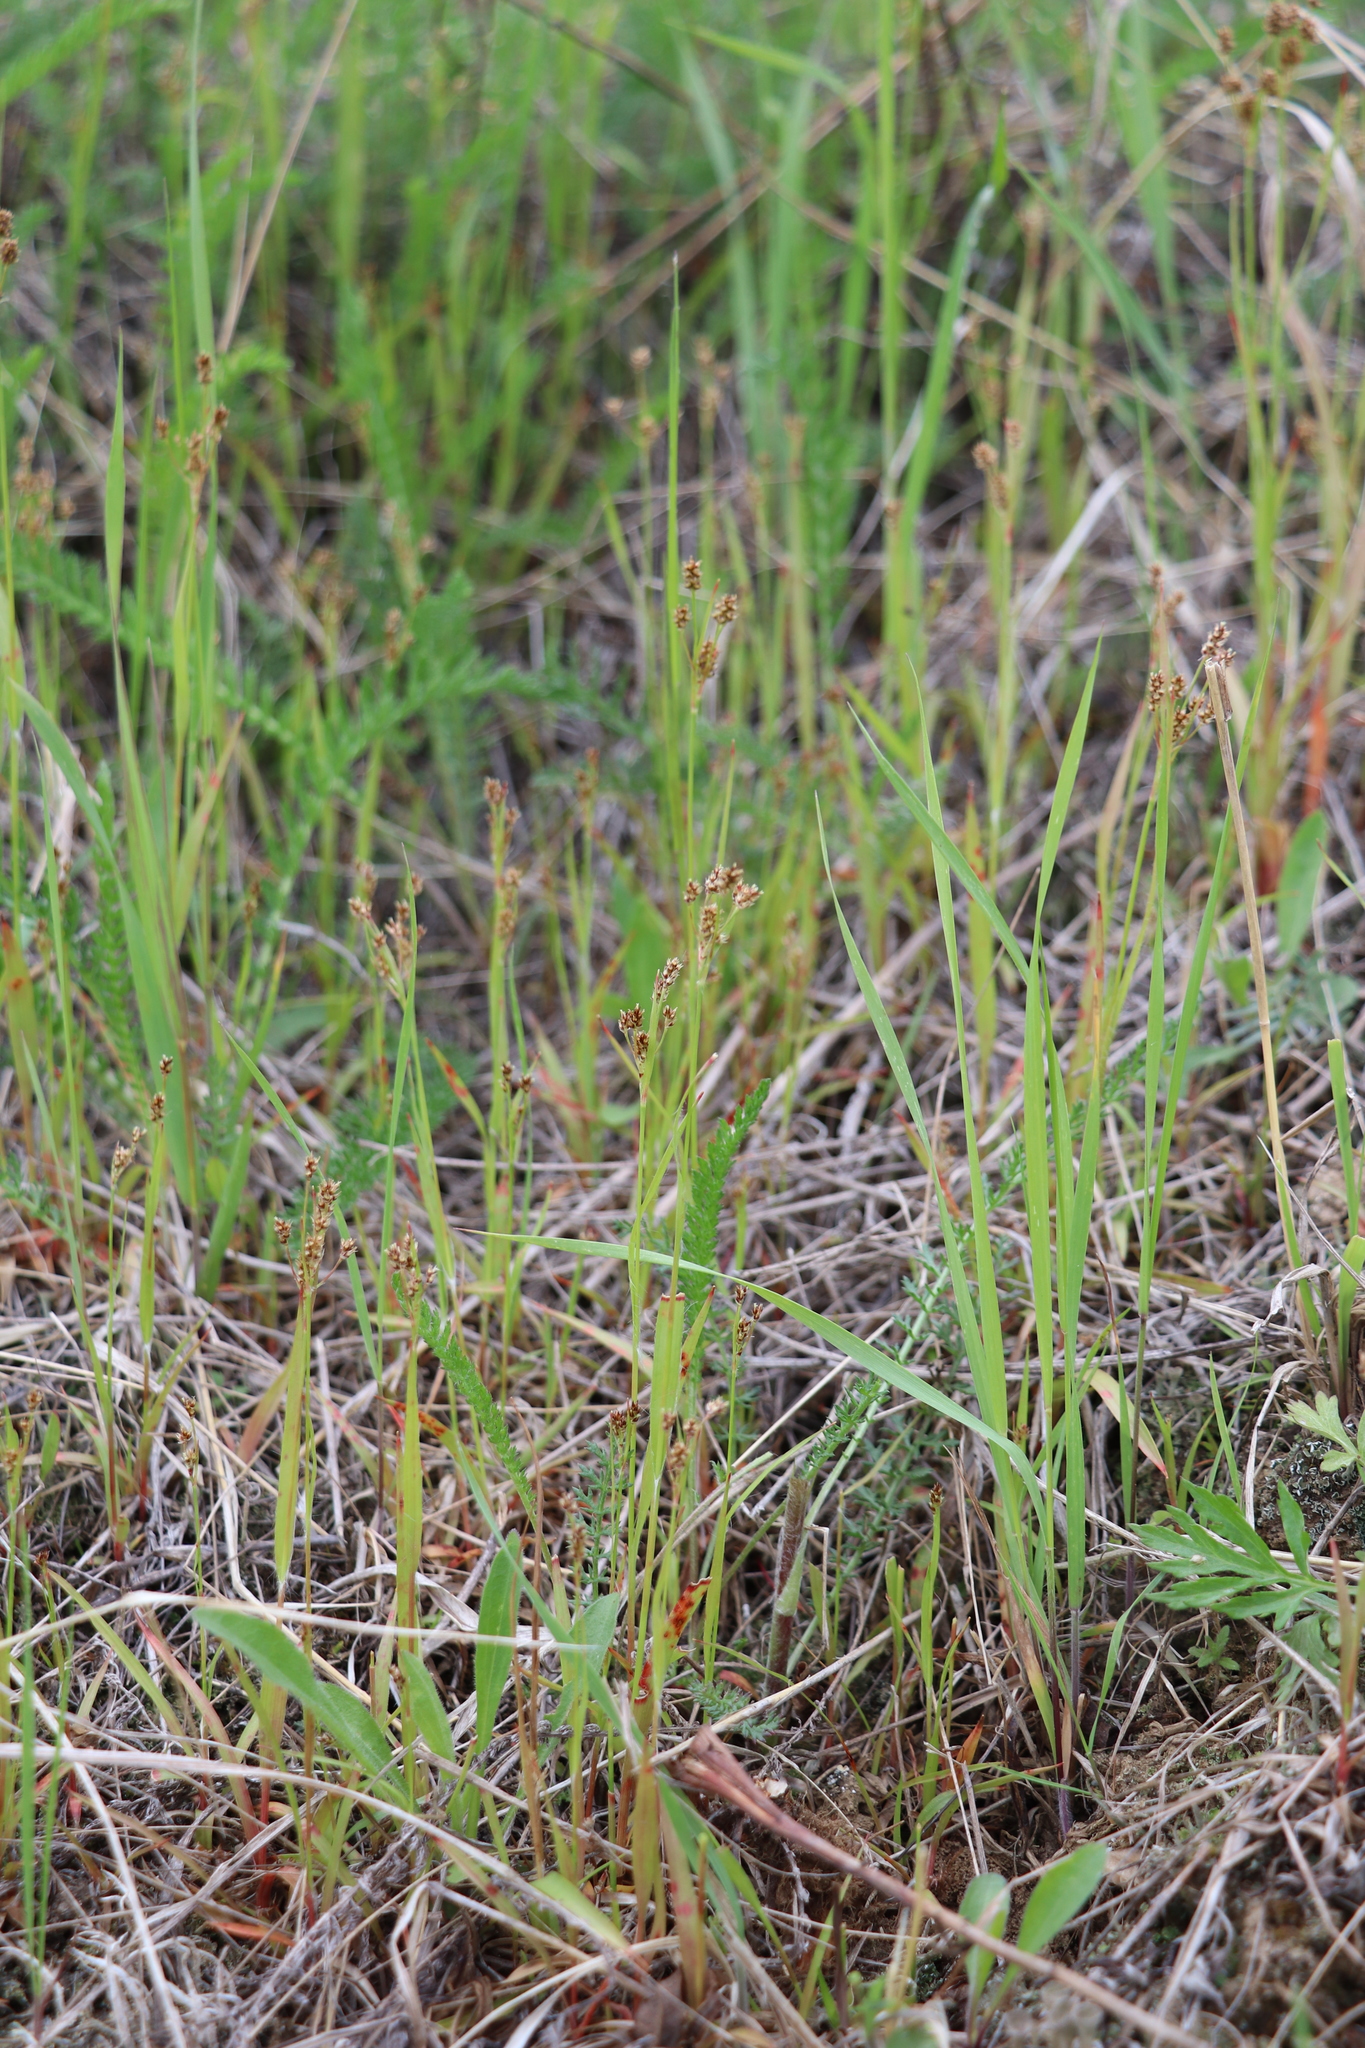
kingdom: Plantae
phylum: Tracheophyta
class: Liliopsida
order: Poales
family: Juncaceae
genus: Luzula
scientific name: Luzula pallescens
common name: Fen wood-rush
